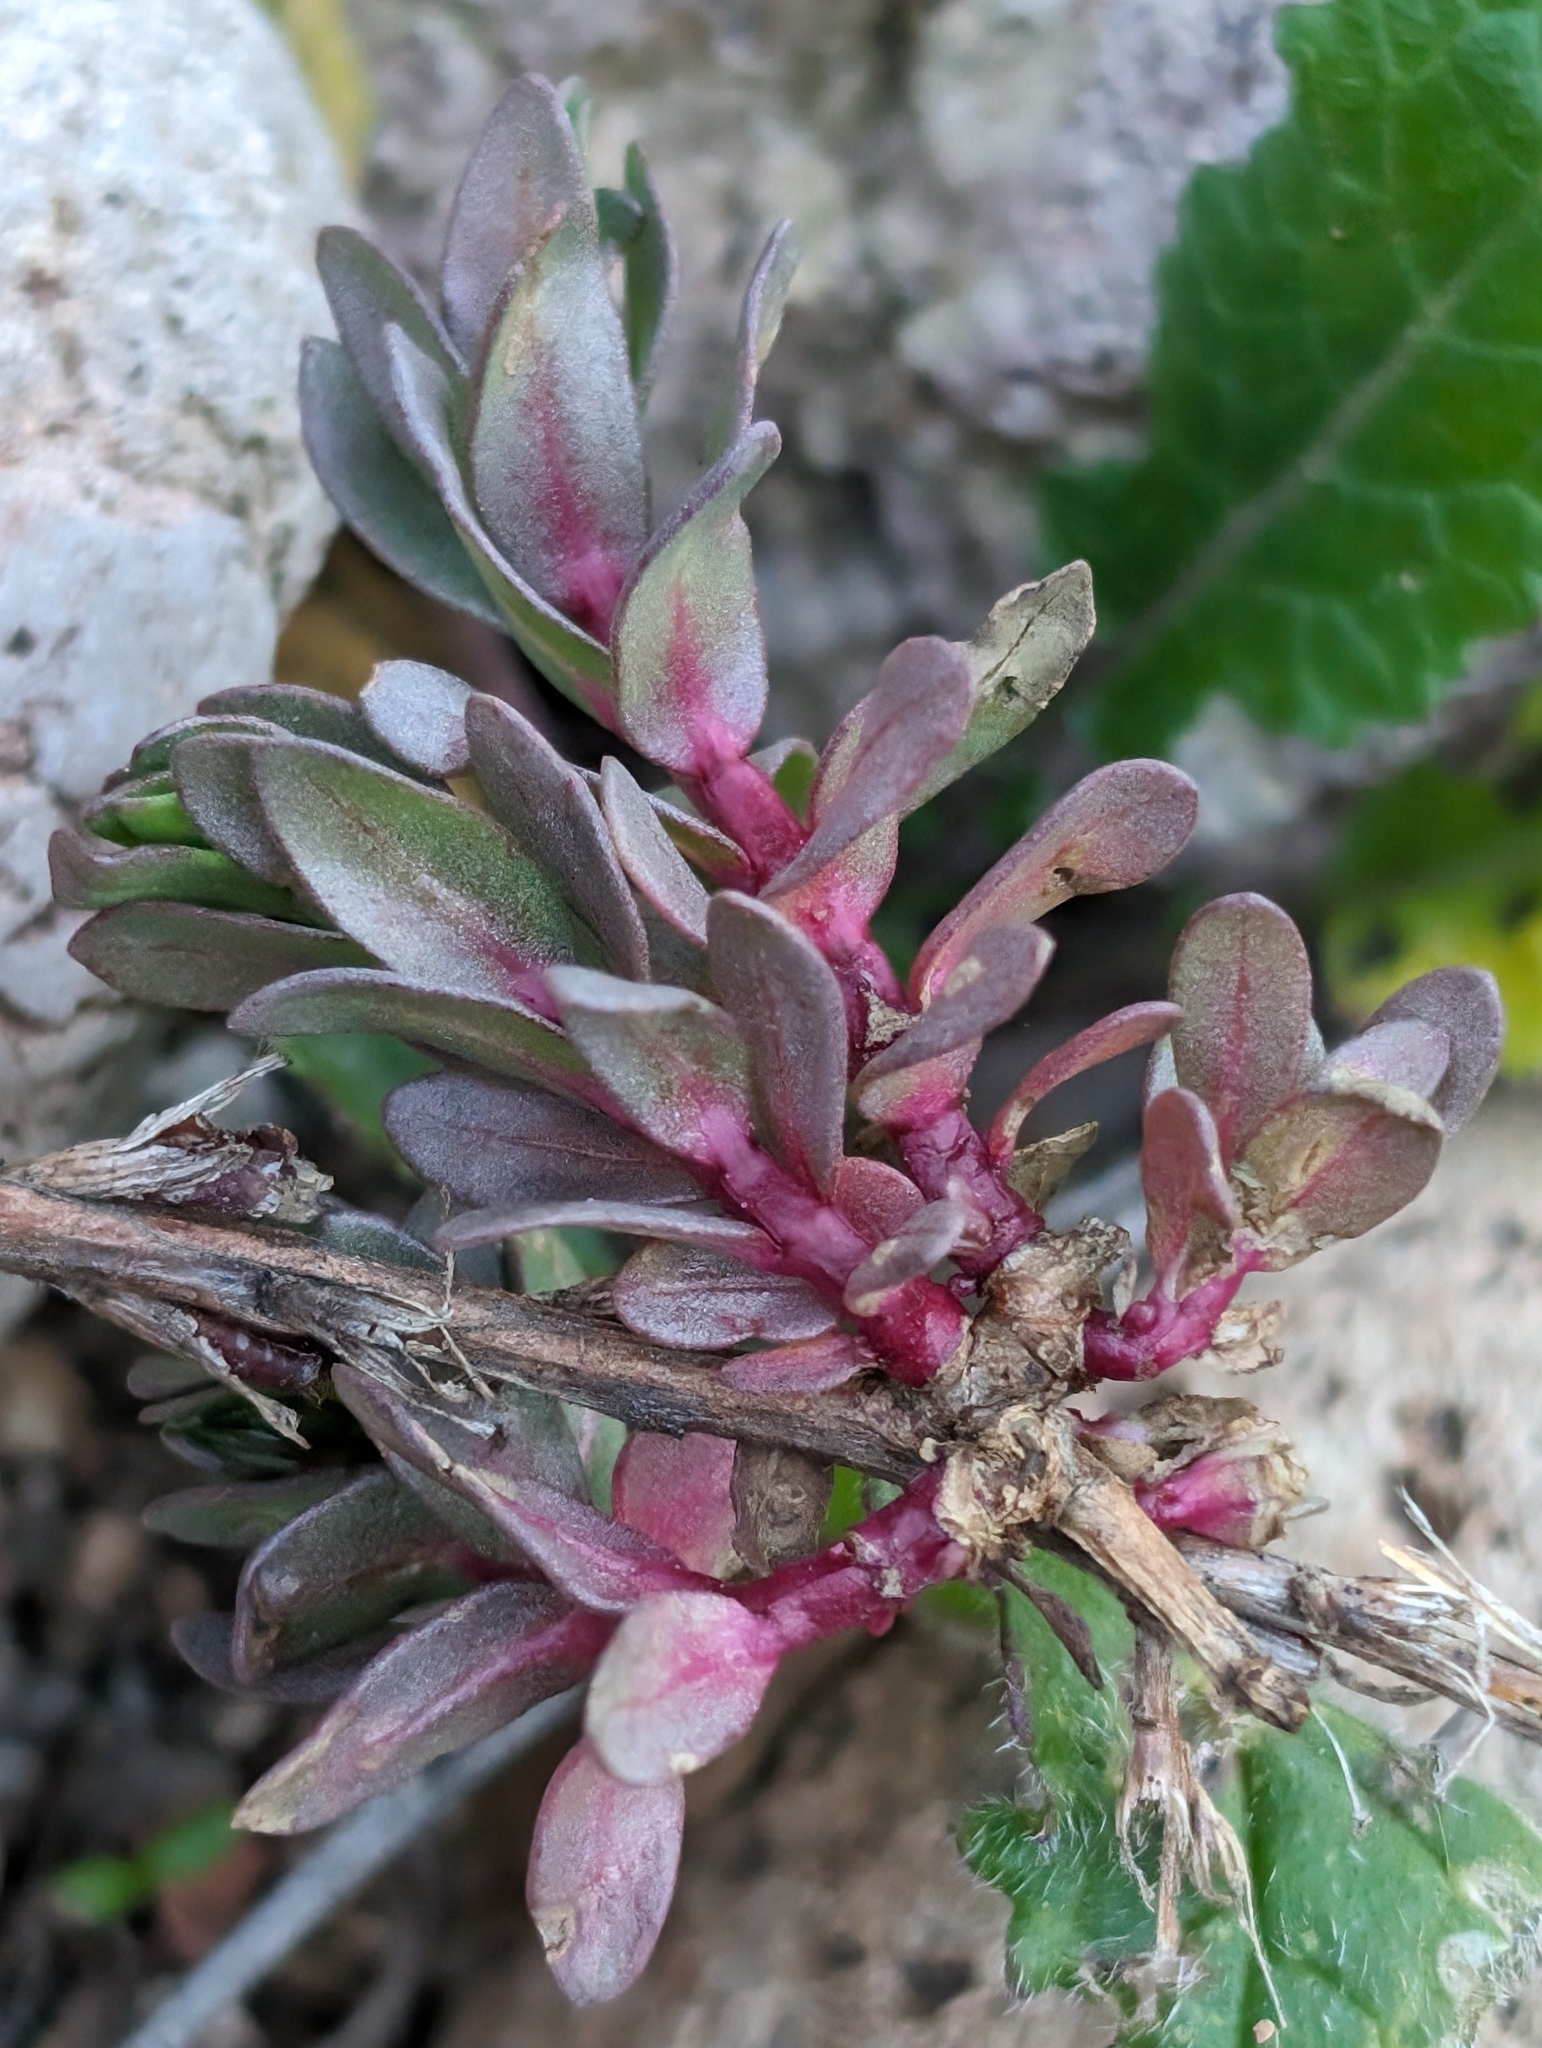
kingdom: Plantae
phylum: Tracheophyta
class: Magnoliopsida
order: Myrtales
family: Lythraceae
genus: Lythrum
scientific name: Lythrum hyssopifolia
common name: Grass-poly
